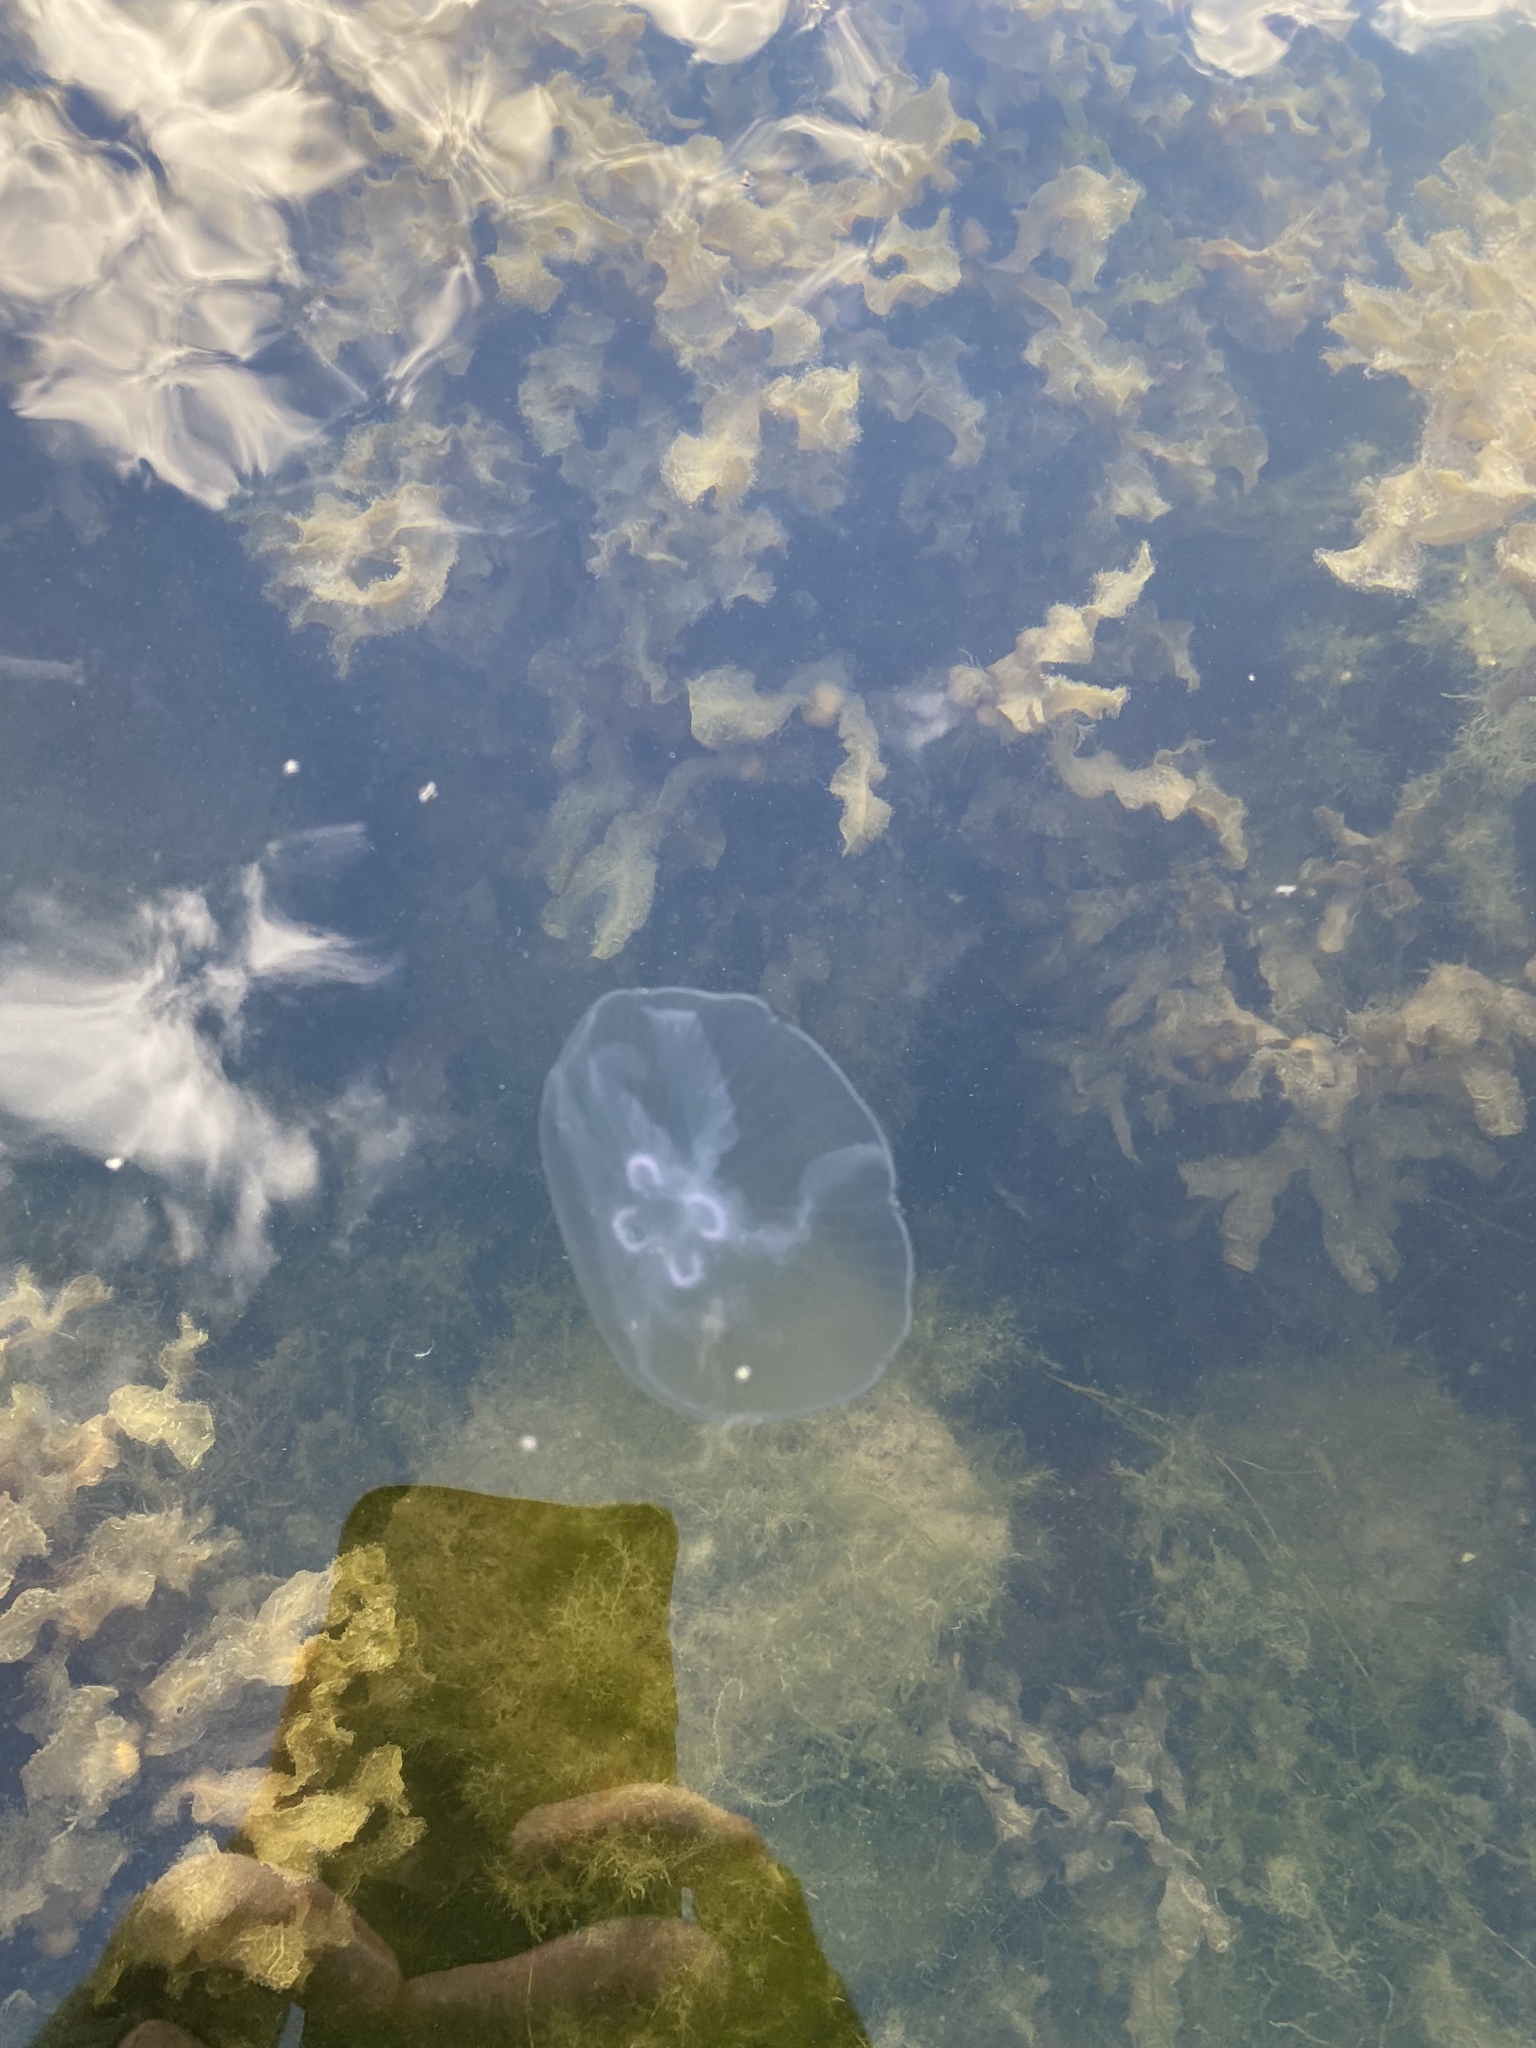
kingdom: Animalia
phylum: Cnidaria
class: Scyphozoa
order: Semaeostomeae
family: Ulmaridae
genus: Aurelia
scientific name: Aurelia aurita
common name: Moon jellyfish
